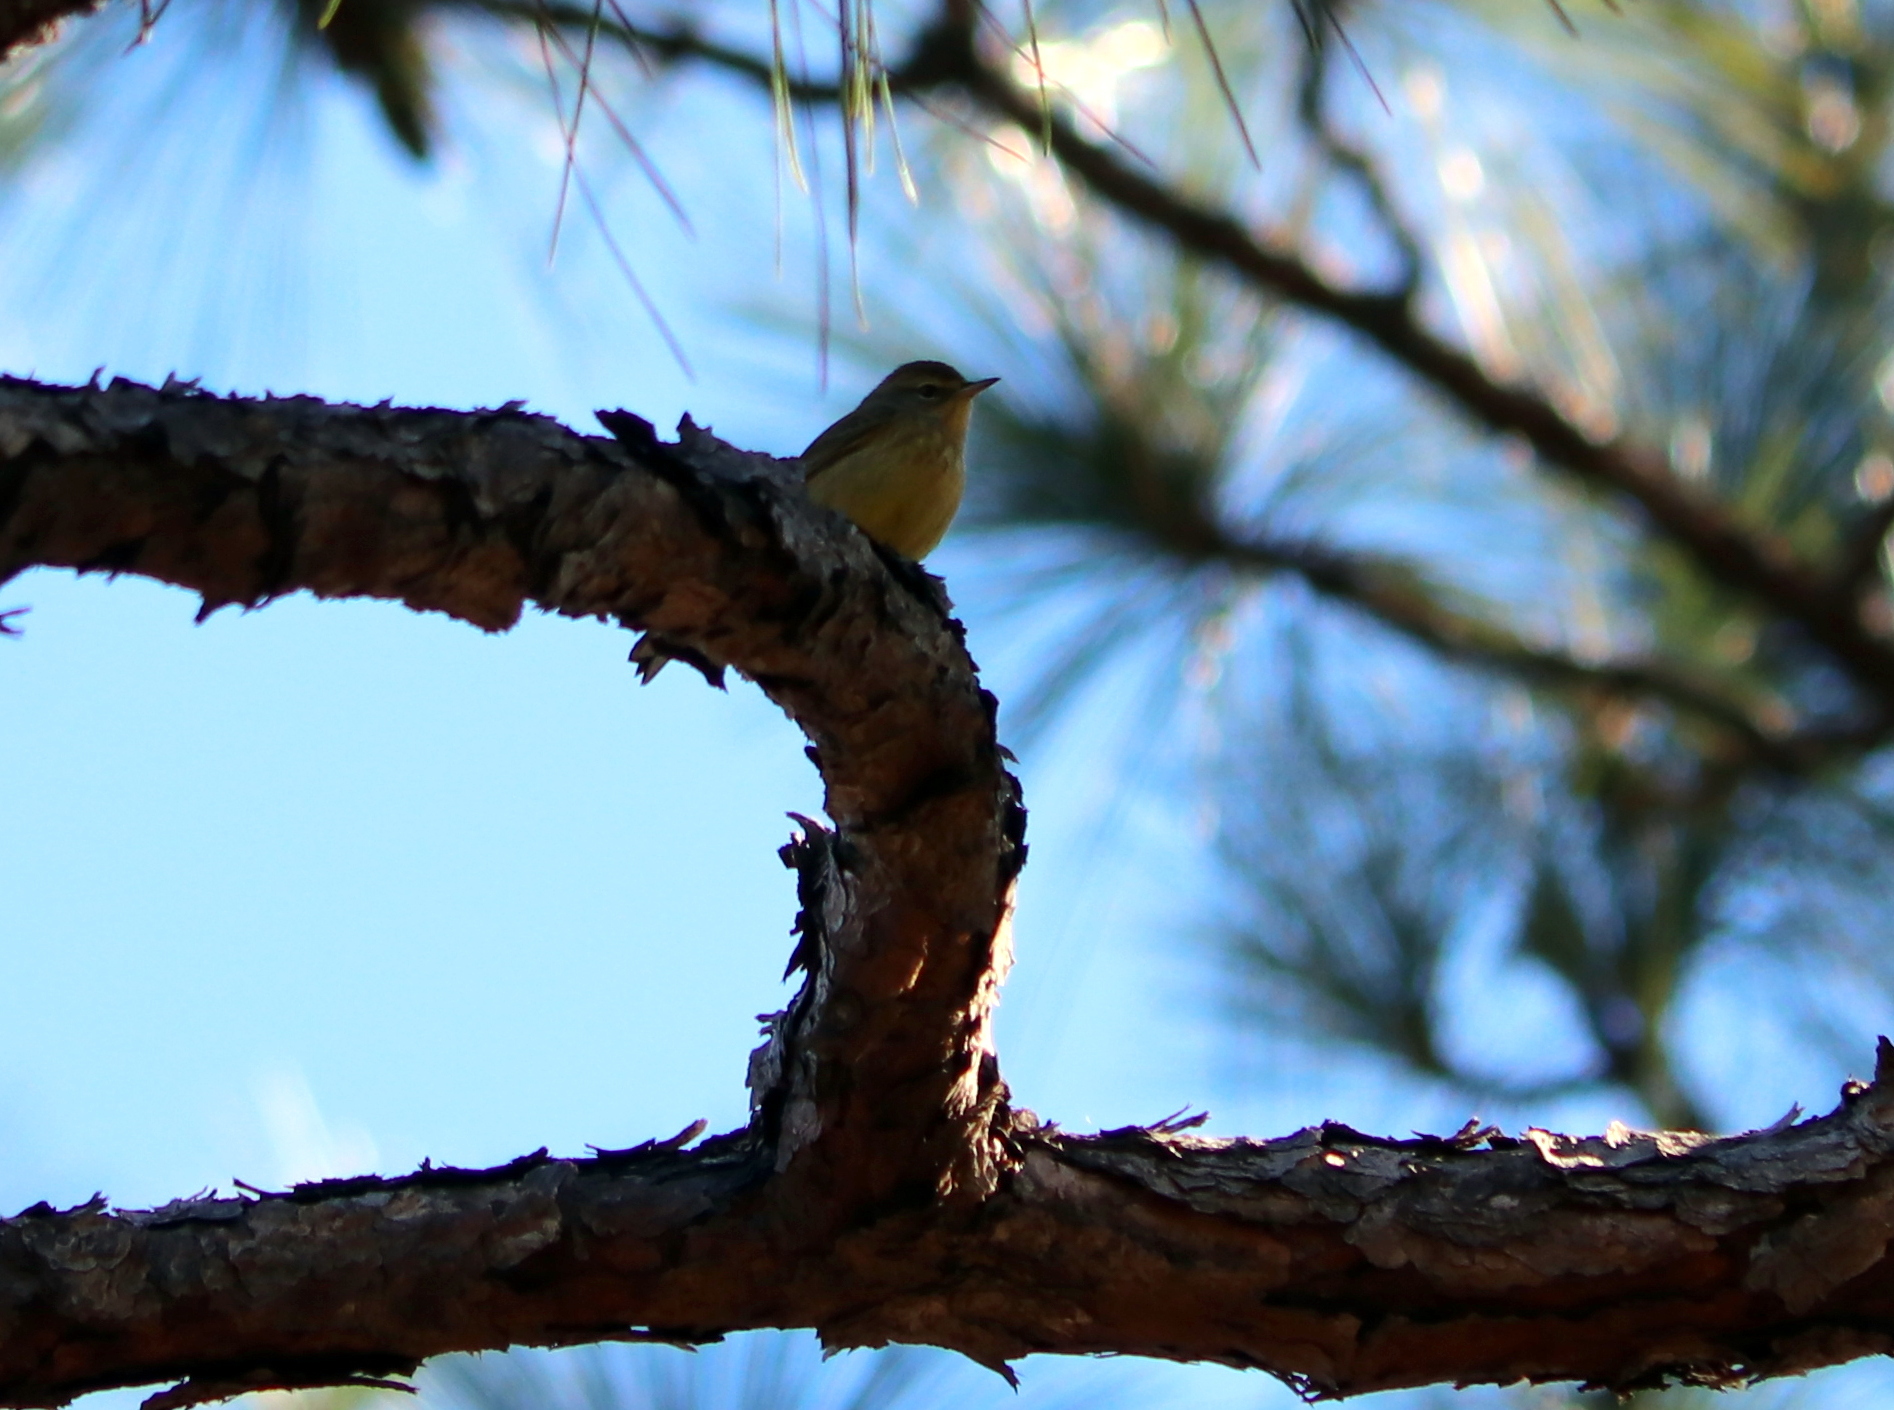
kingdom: Animalia
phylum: Chordata
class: Aves
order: Passeriformes
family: Parulidae
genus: Setophaga
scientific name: Setophaga palmarum
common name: Palm warbler
